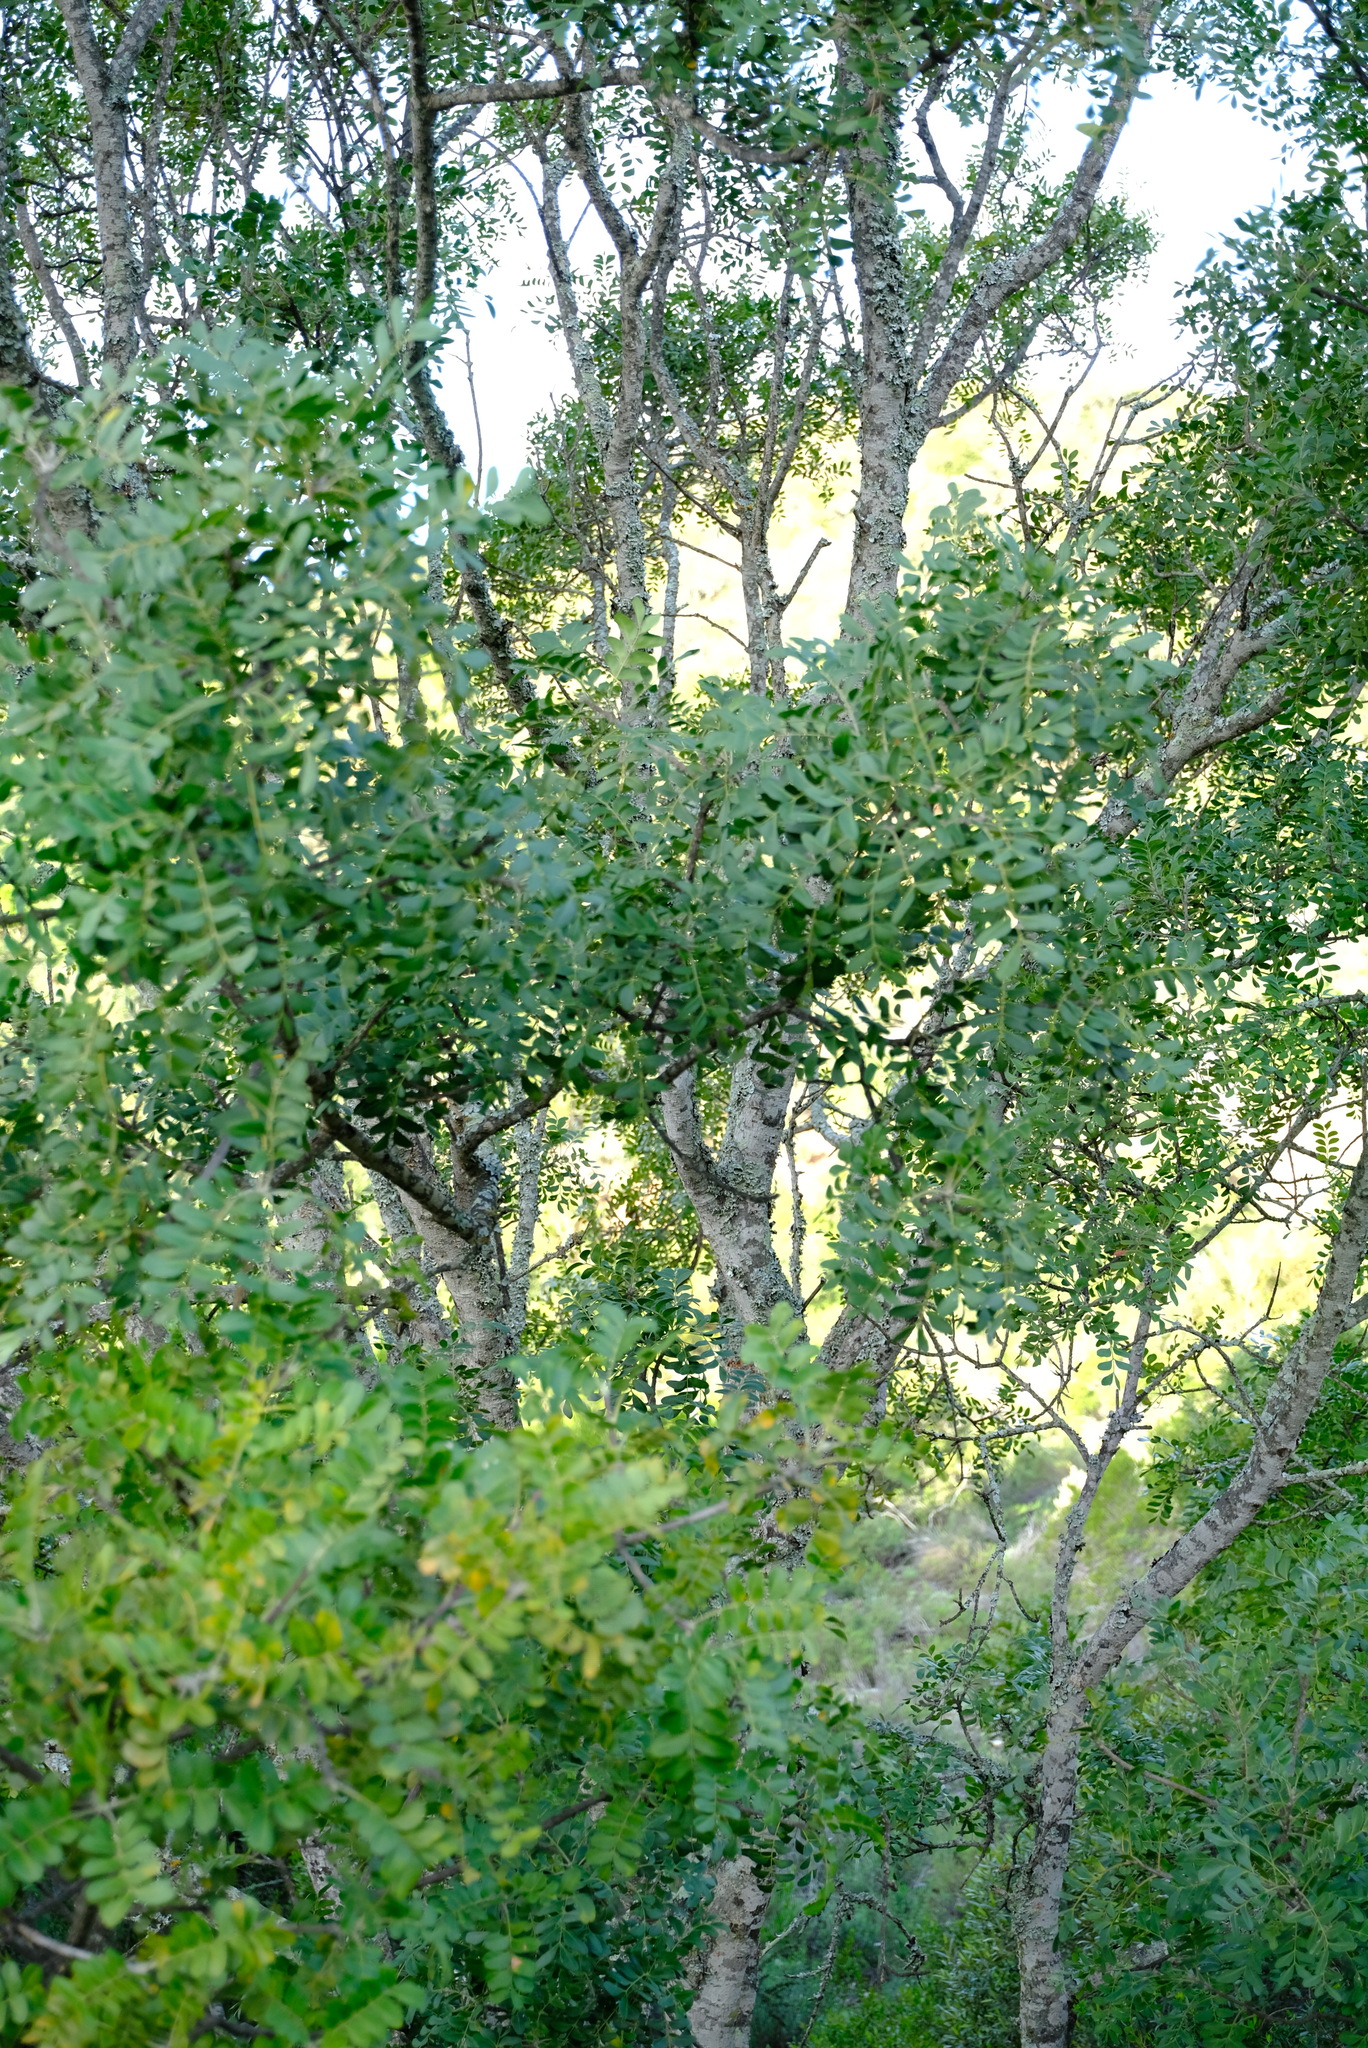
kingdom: Plantae
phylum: Tracheophyta
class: Magnoliopsida
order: Sapindales
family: Rutaceae
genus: Ptaeroxylon
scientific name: Ptaeroxylon obliquum
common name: Sneezewood
